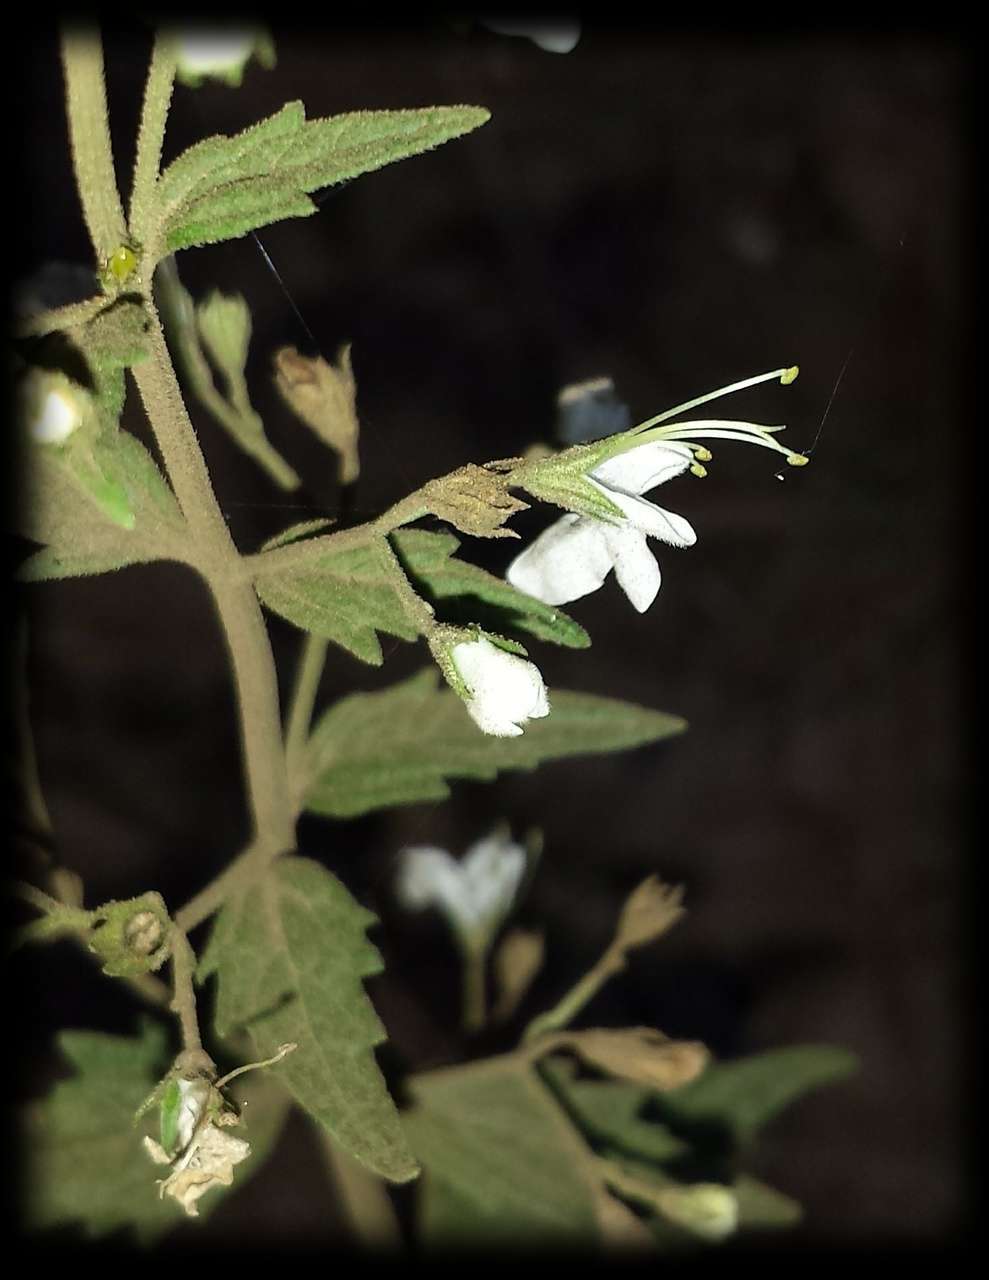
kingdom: Plantae
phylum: Tracheophyta
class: Magnoliopsida
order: Lamiales
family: Lamiaceae
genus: Teucrium
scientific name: Teucrium corymbosum
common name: Forest germander
